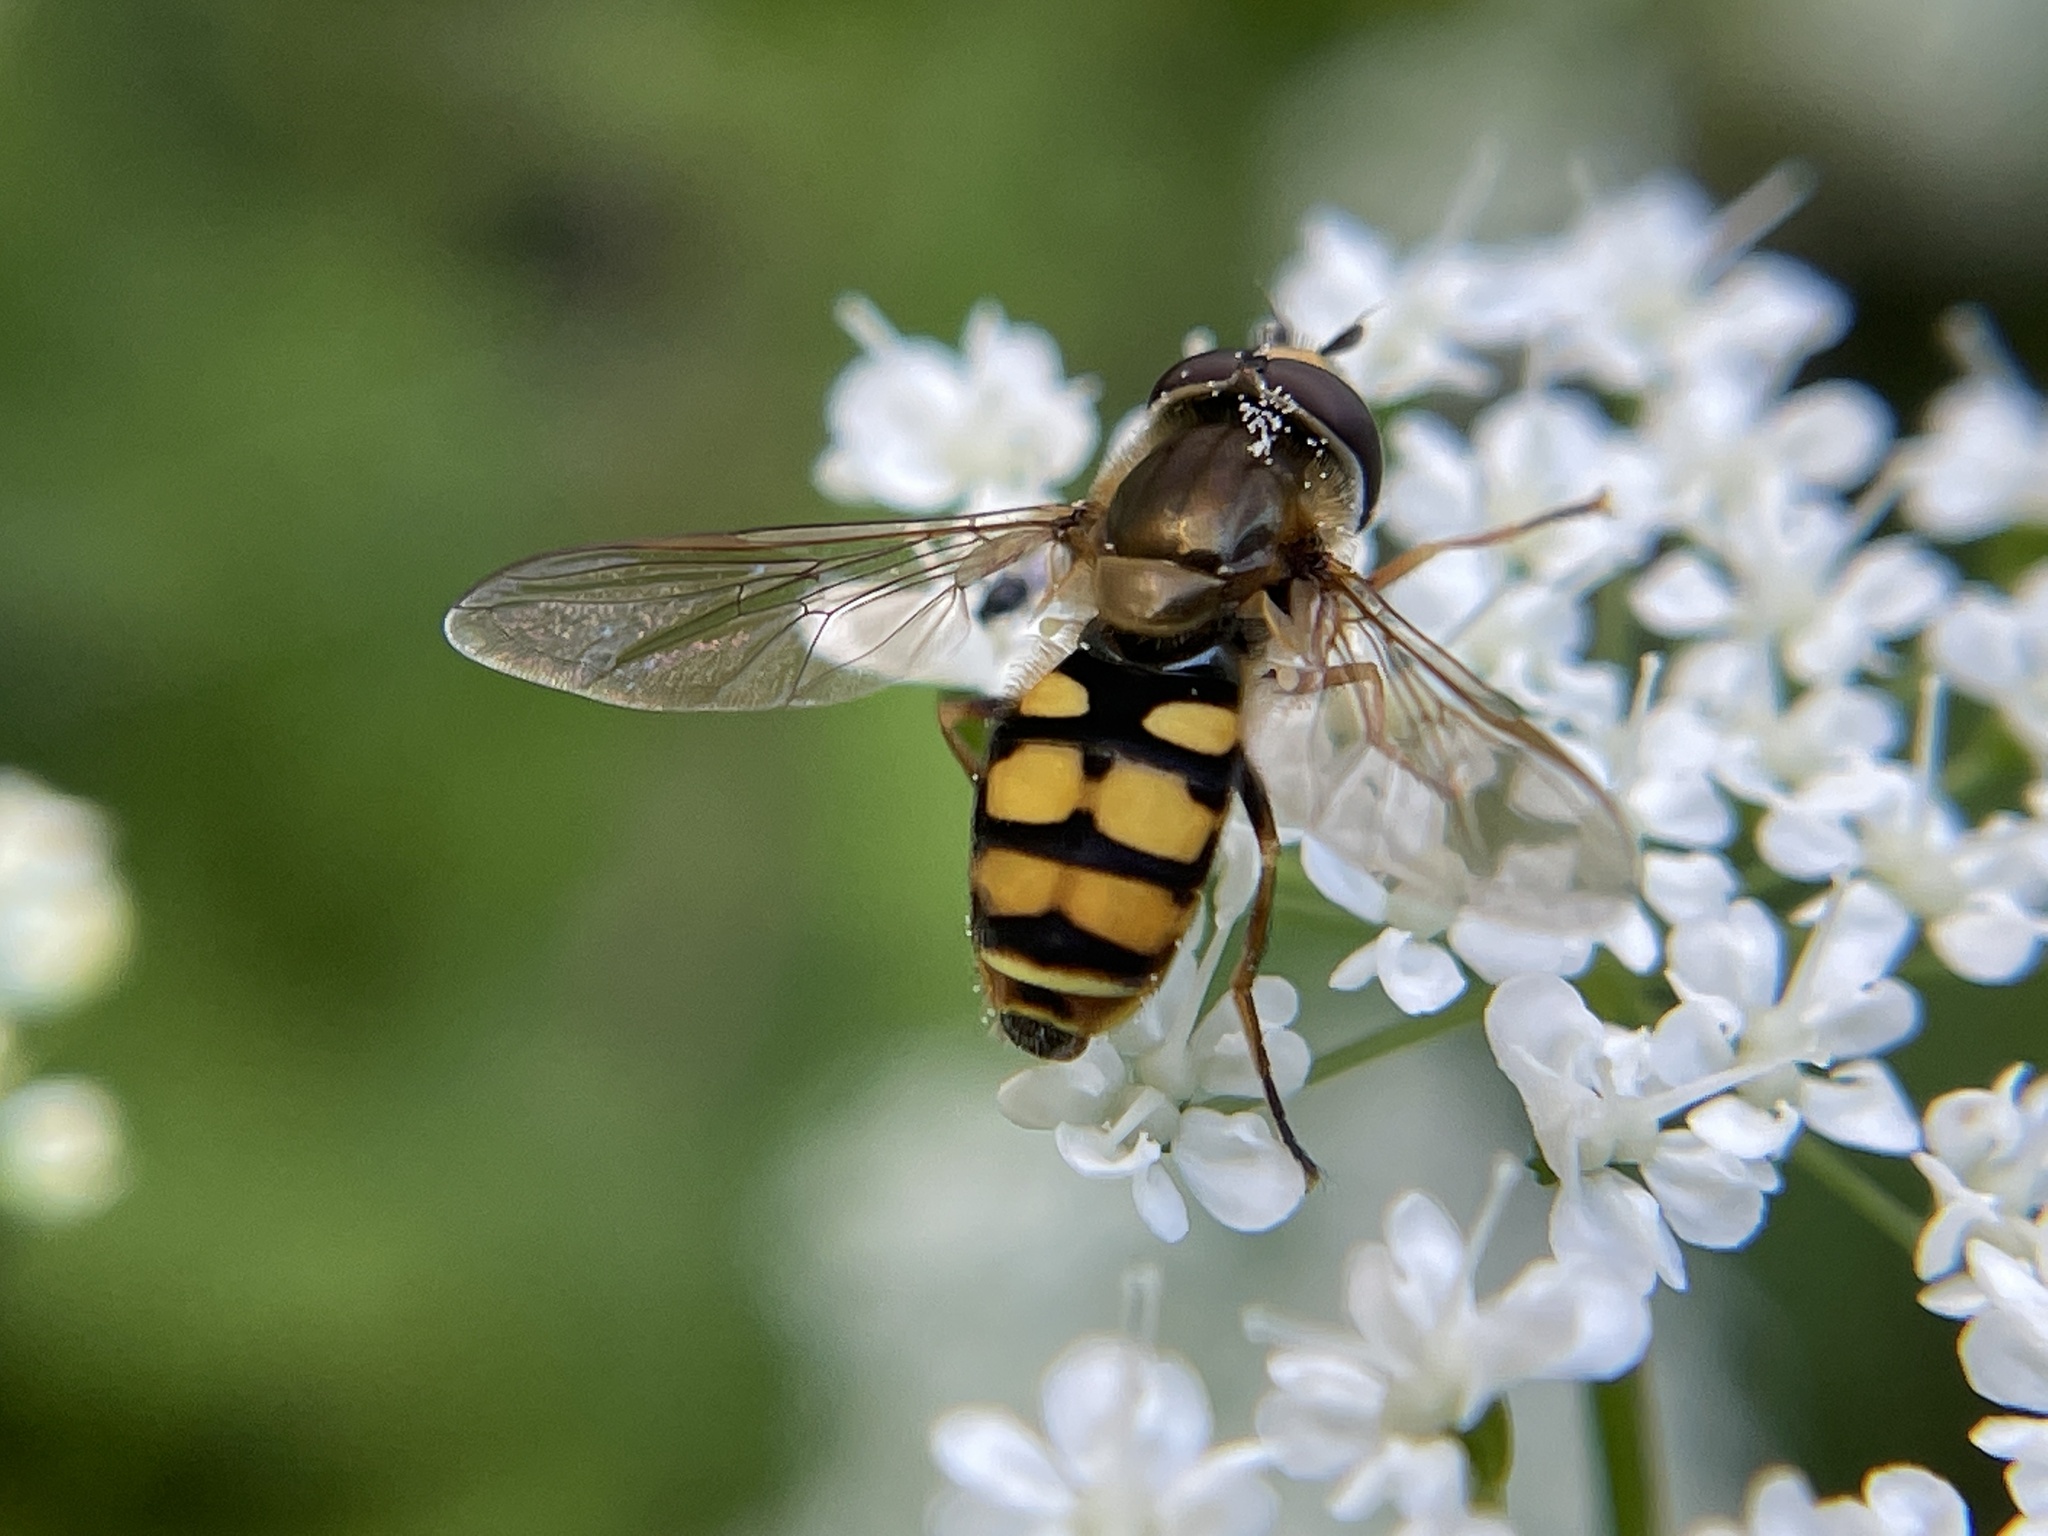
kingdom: Animalia
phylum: Arthropoda
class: Insecta
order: Diptera
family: Syrphidae
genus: Eupeodes
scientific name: Eupeodes corollae
